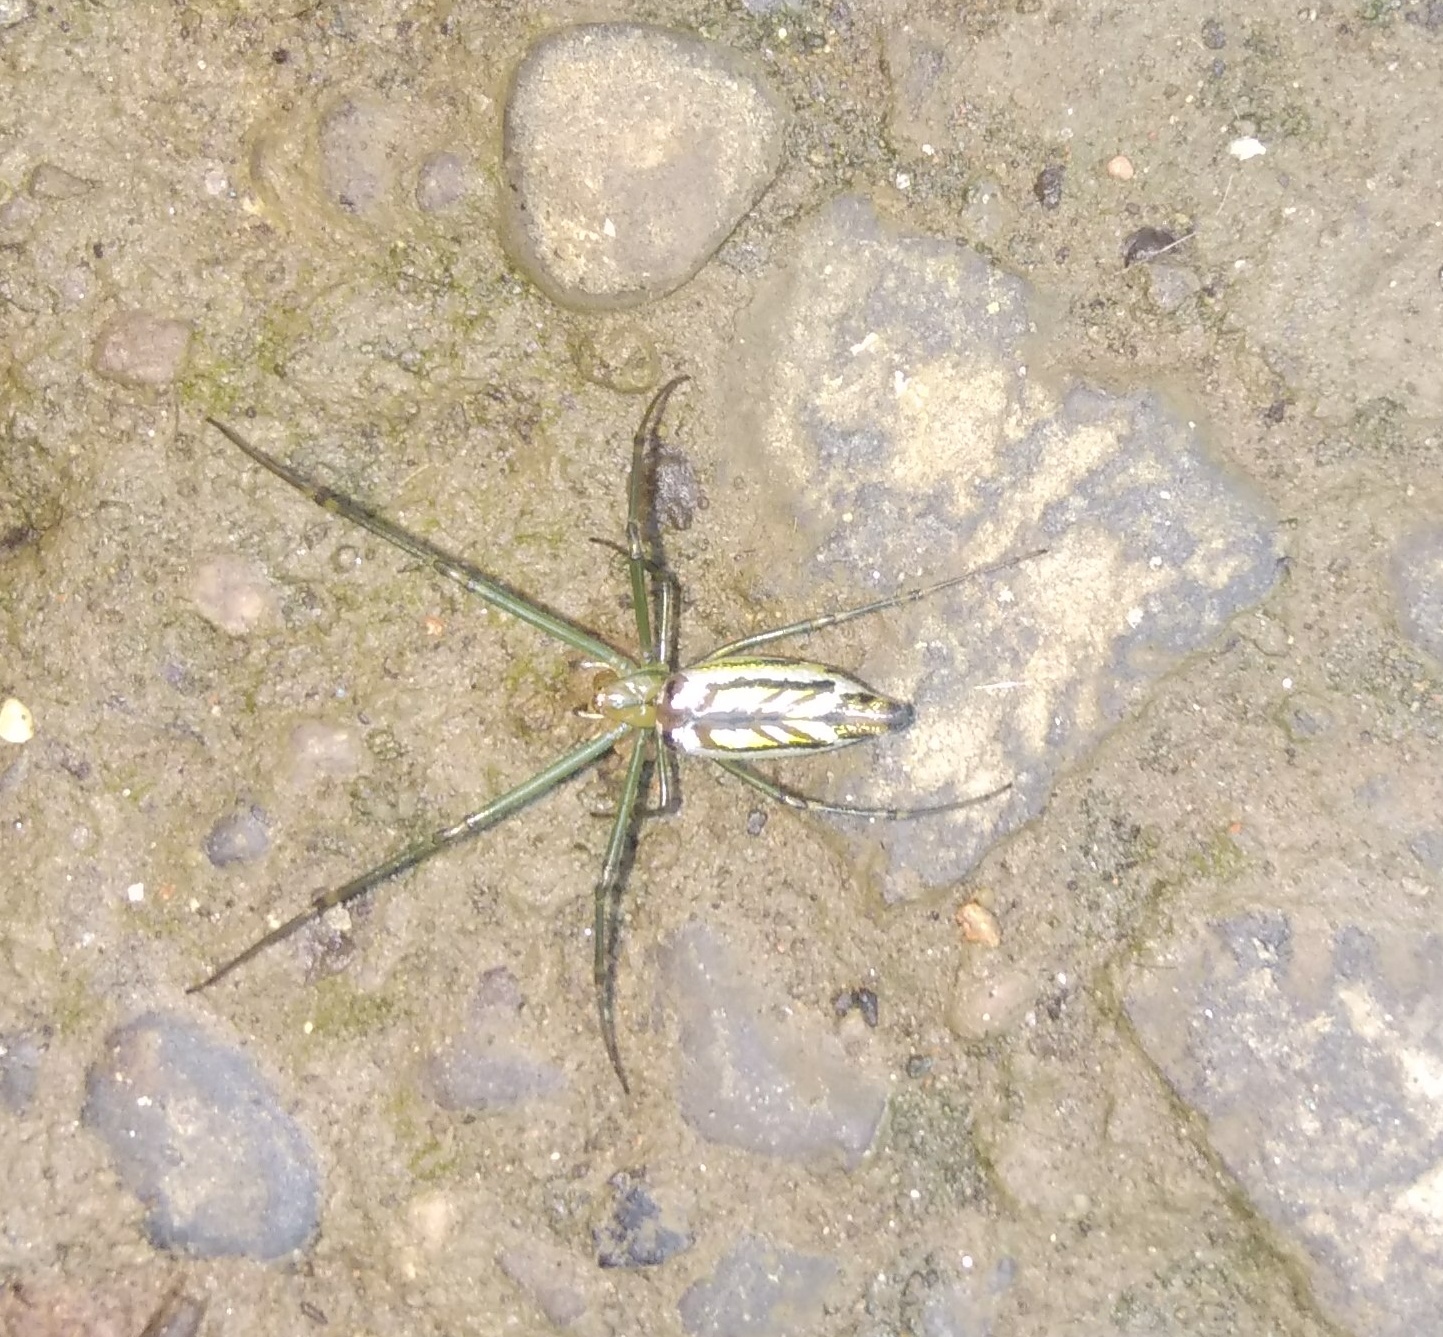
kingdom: Animalia
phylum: Arthropoda
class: Arachnida
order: Araneae
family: Tetragnathidae
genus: Leucauge
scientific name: Leucauge decorata
